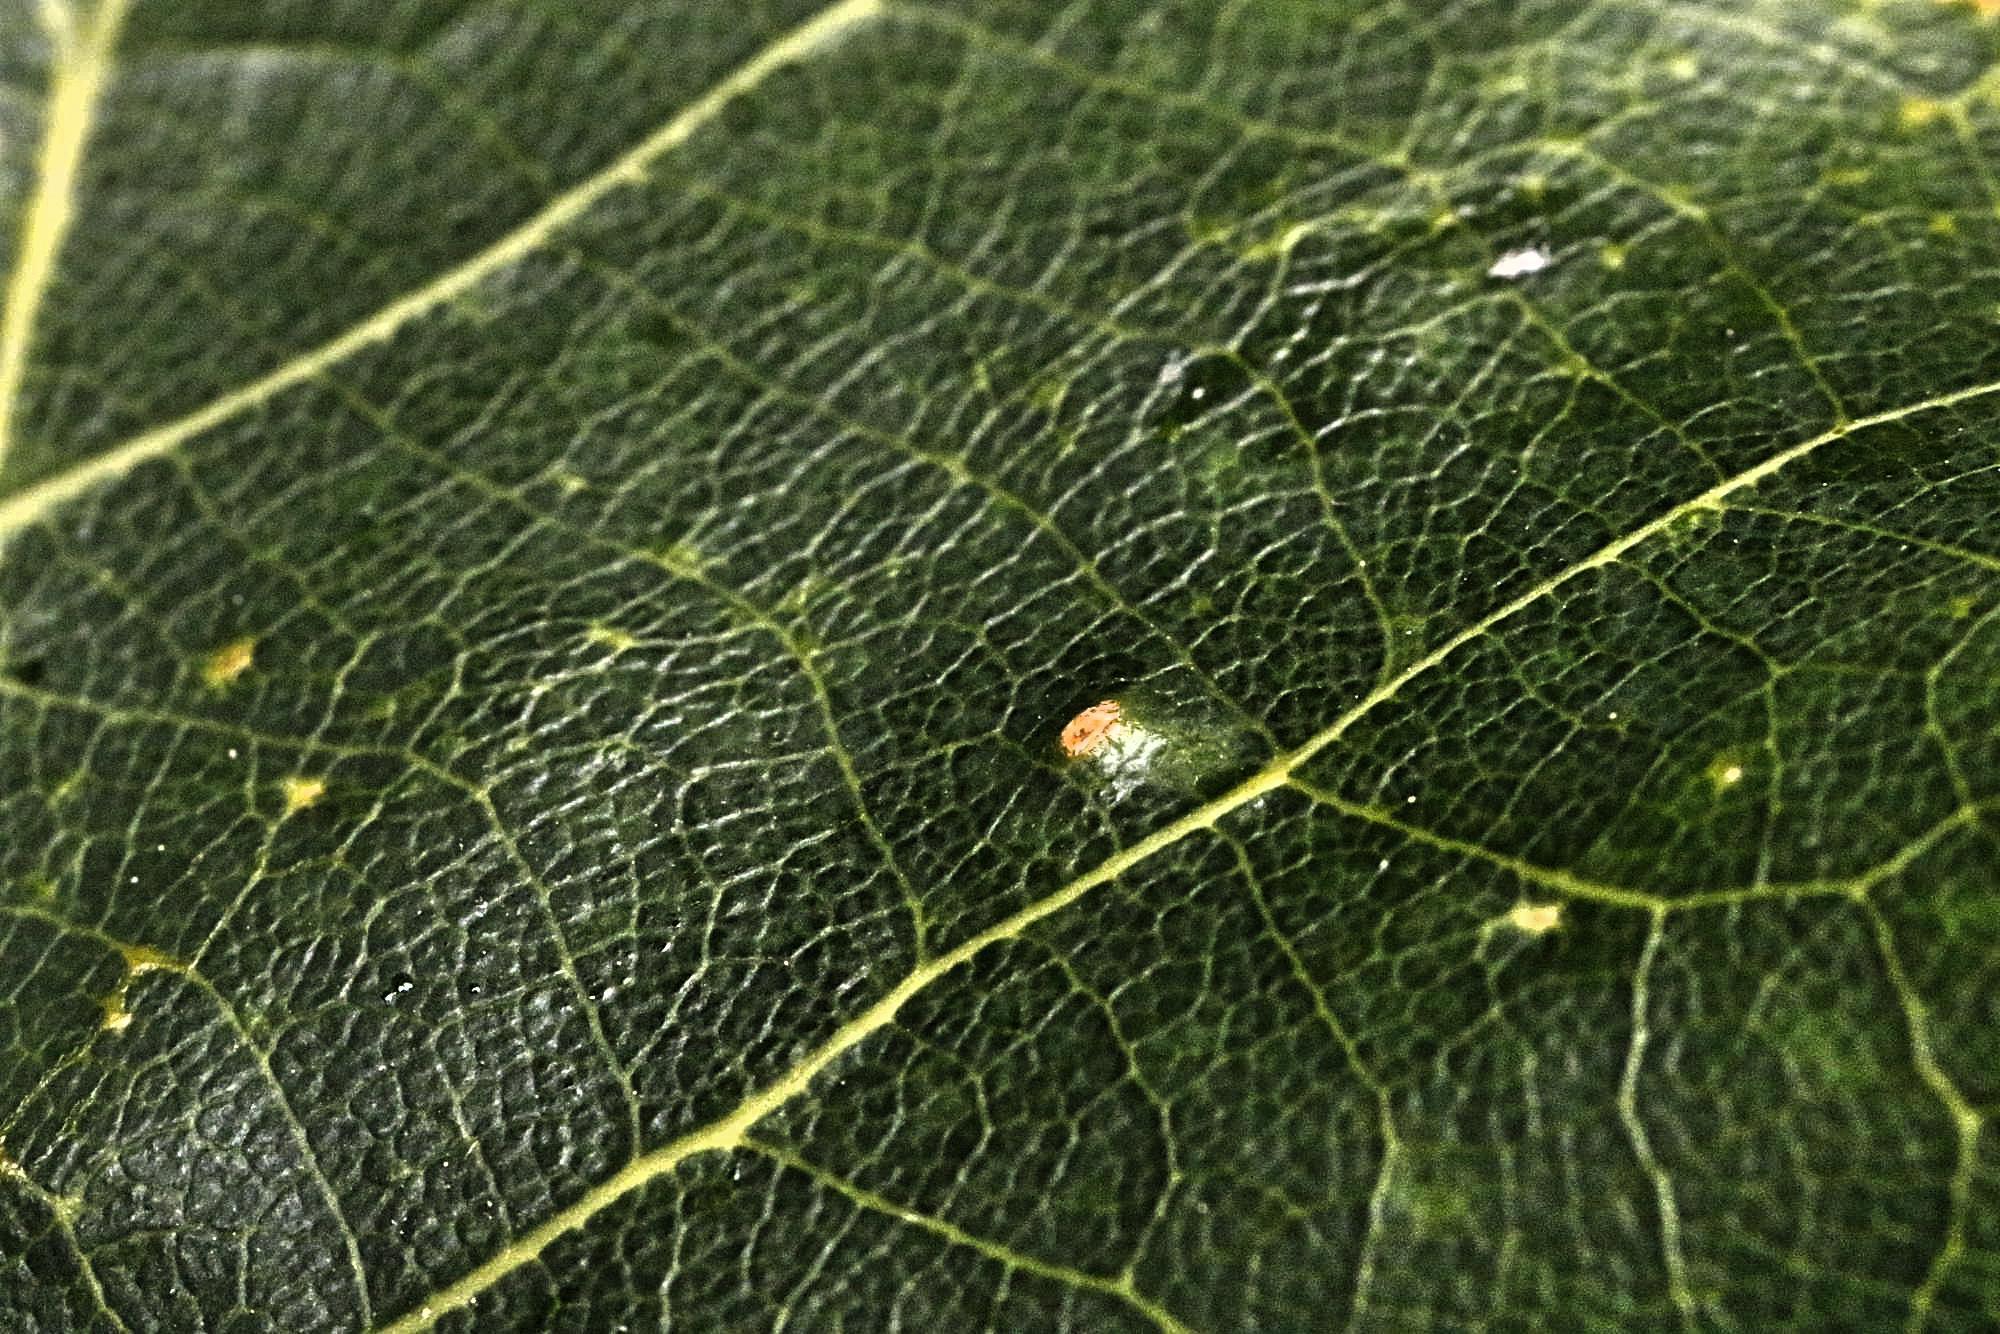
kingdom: Animalia
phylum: Arthropoda
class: Insecta
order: Hemiptera
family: Triozidae
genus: Trioza
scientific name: Trioza remota
